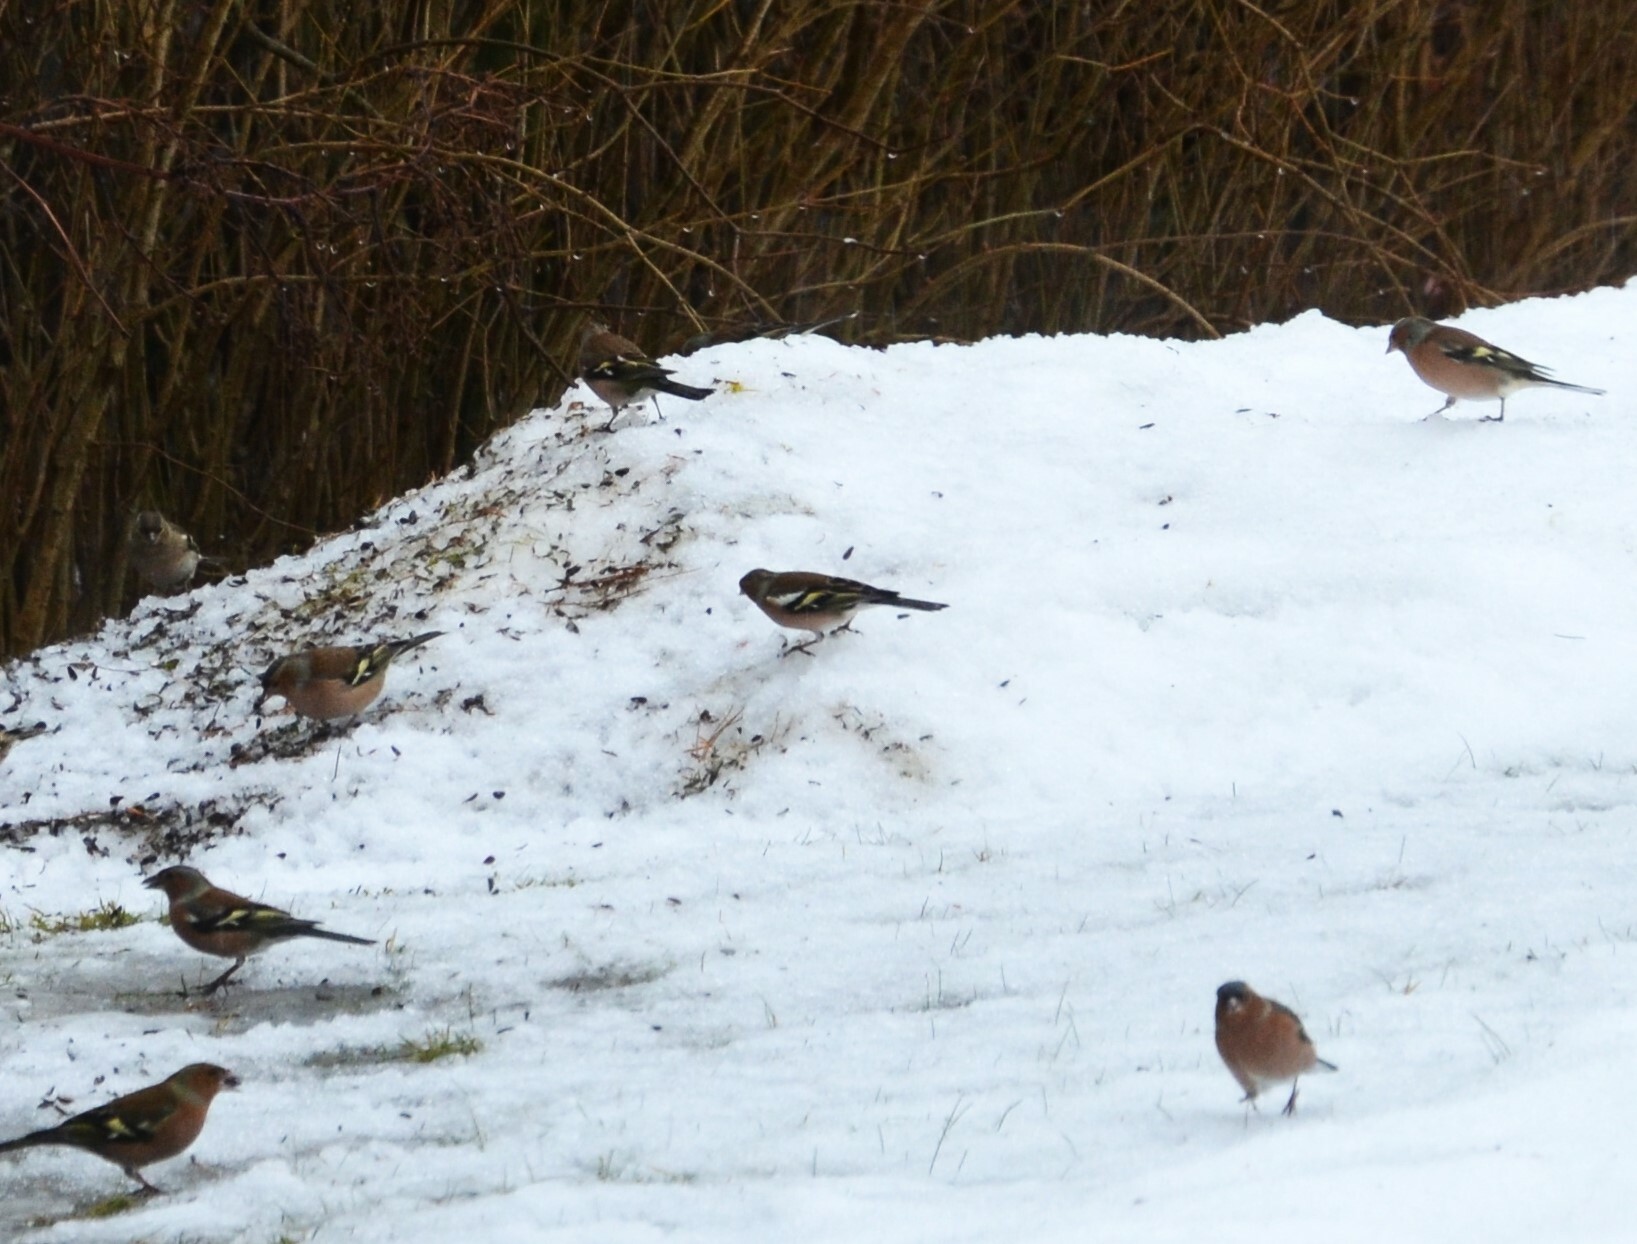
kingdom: Animalia
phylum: Chordata
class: Aves
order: Passeriformes
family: Fringillidae
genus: Fringilla
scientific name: Fringilla coelebs
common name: Common chaffinch
